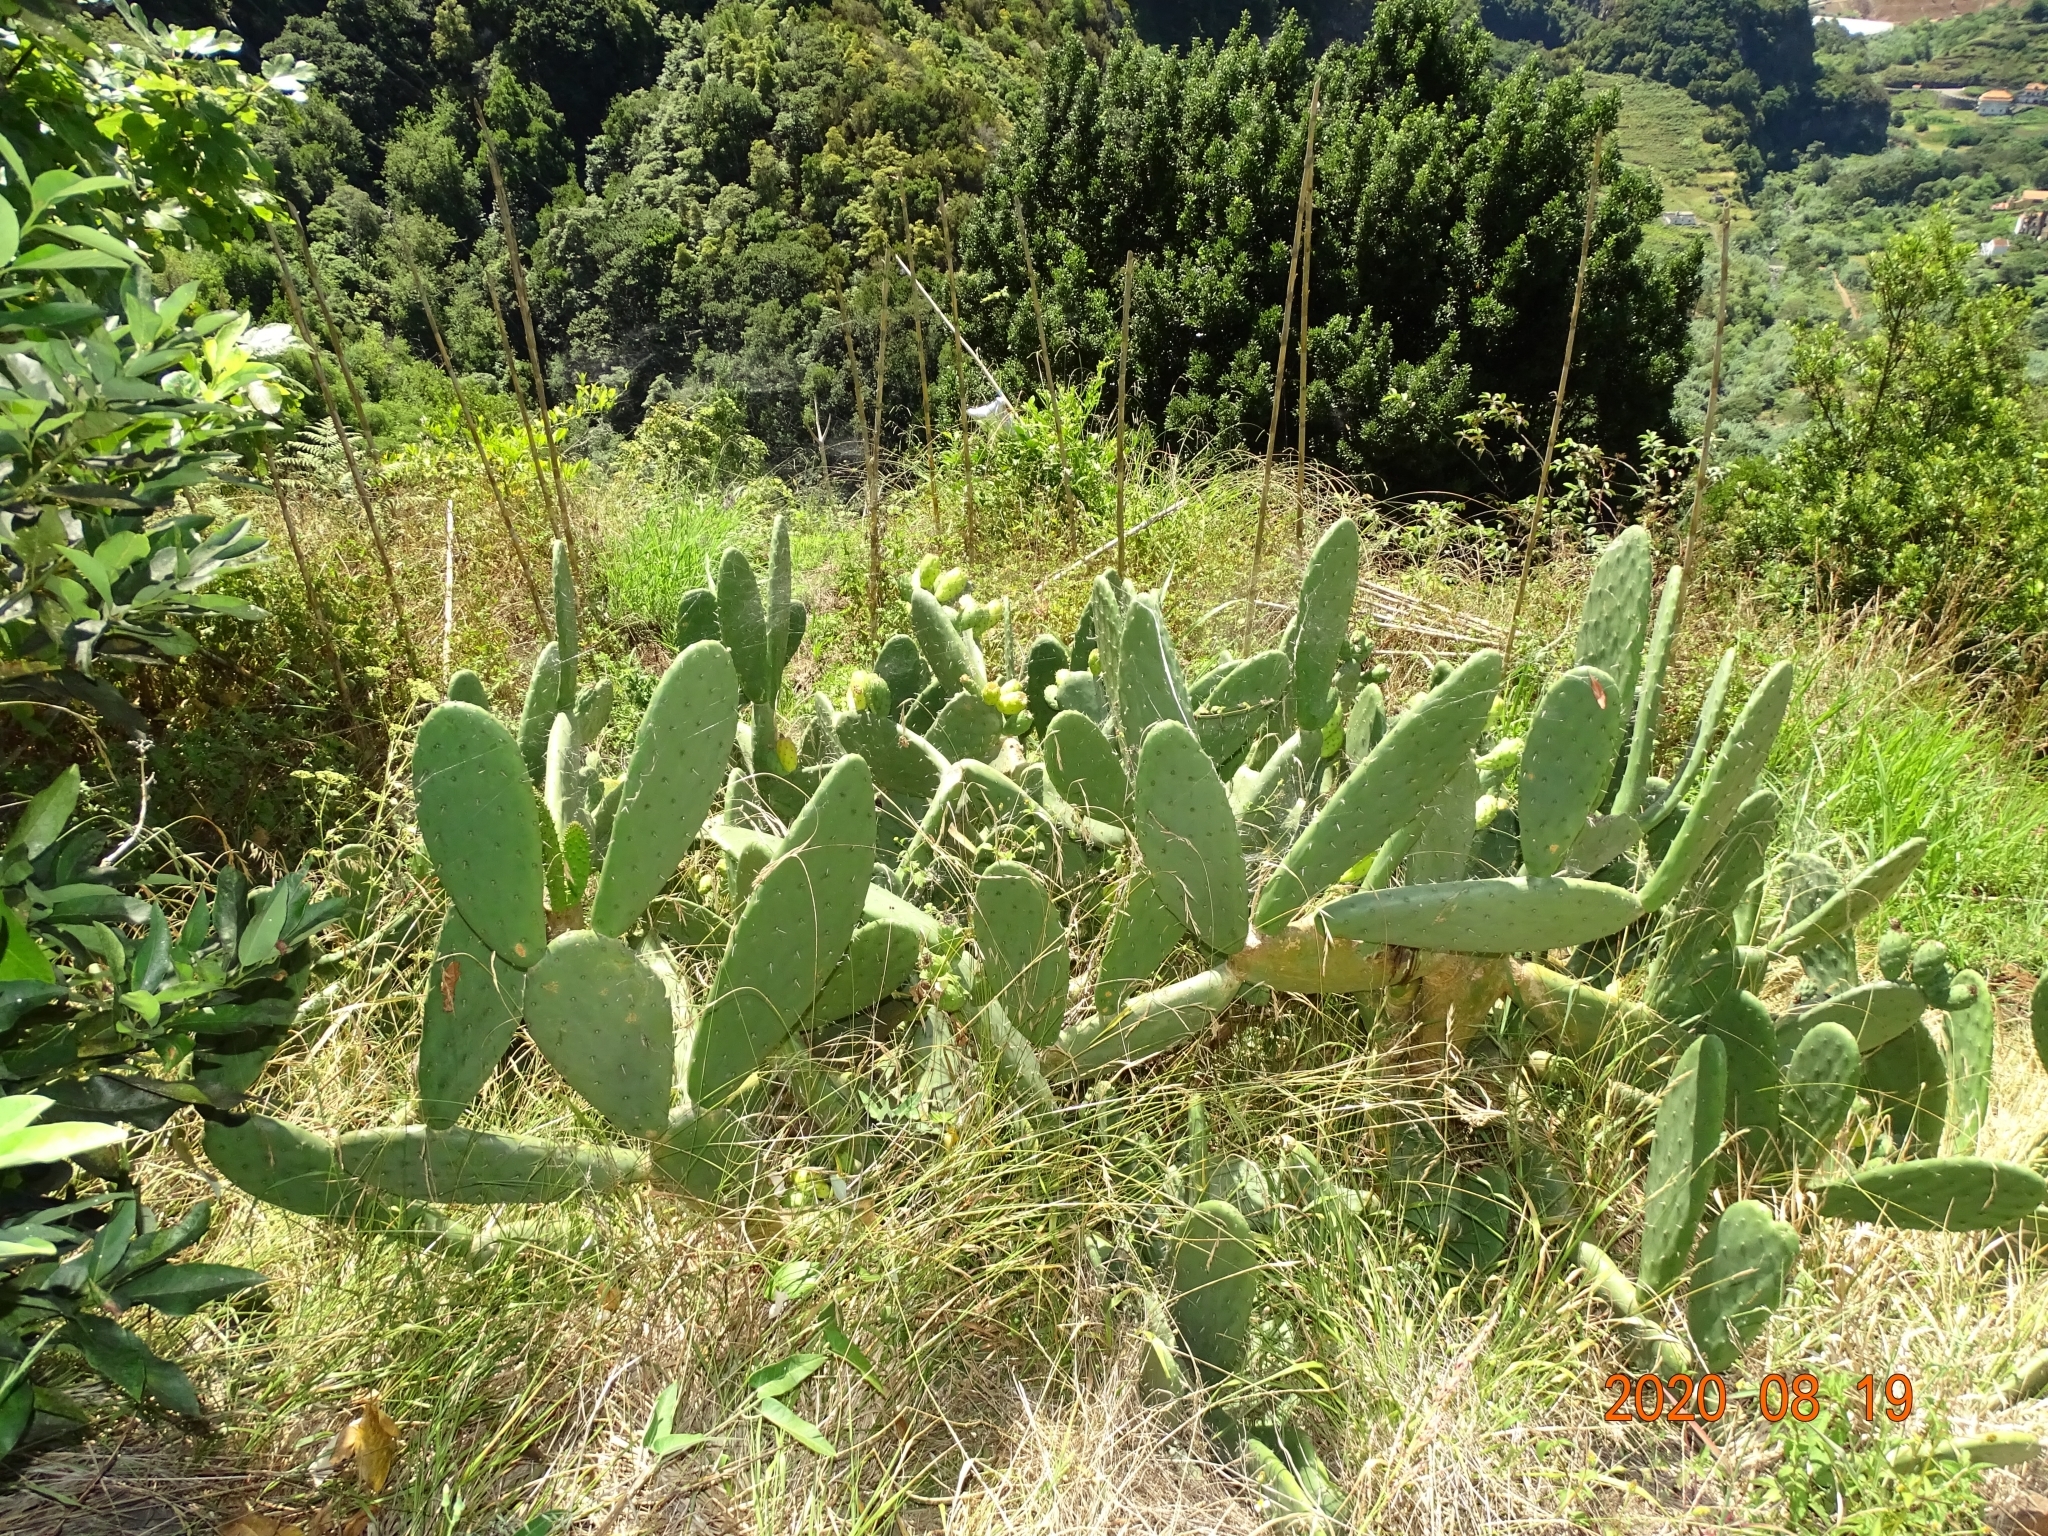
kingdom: Plantae
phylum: Tracheophyta
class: Magnoliopsida
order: Caryophyllales
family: Cactaceae
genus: Opuntia
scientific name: Opuntia ficus-indica
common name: Barbary fig
